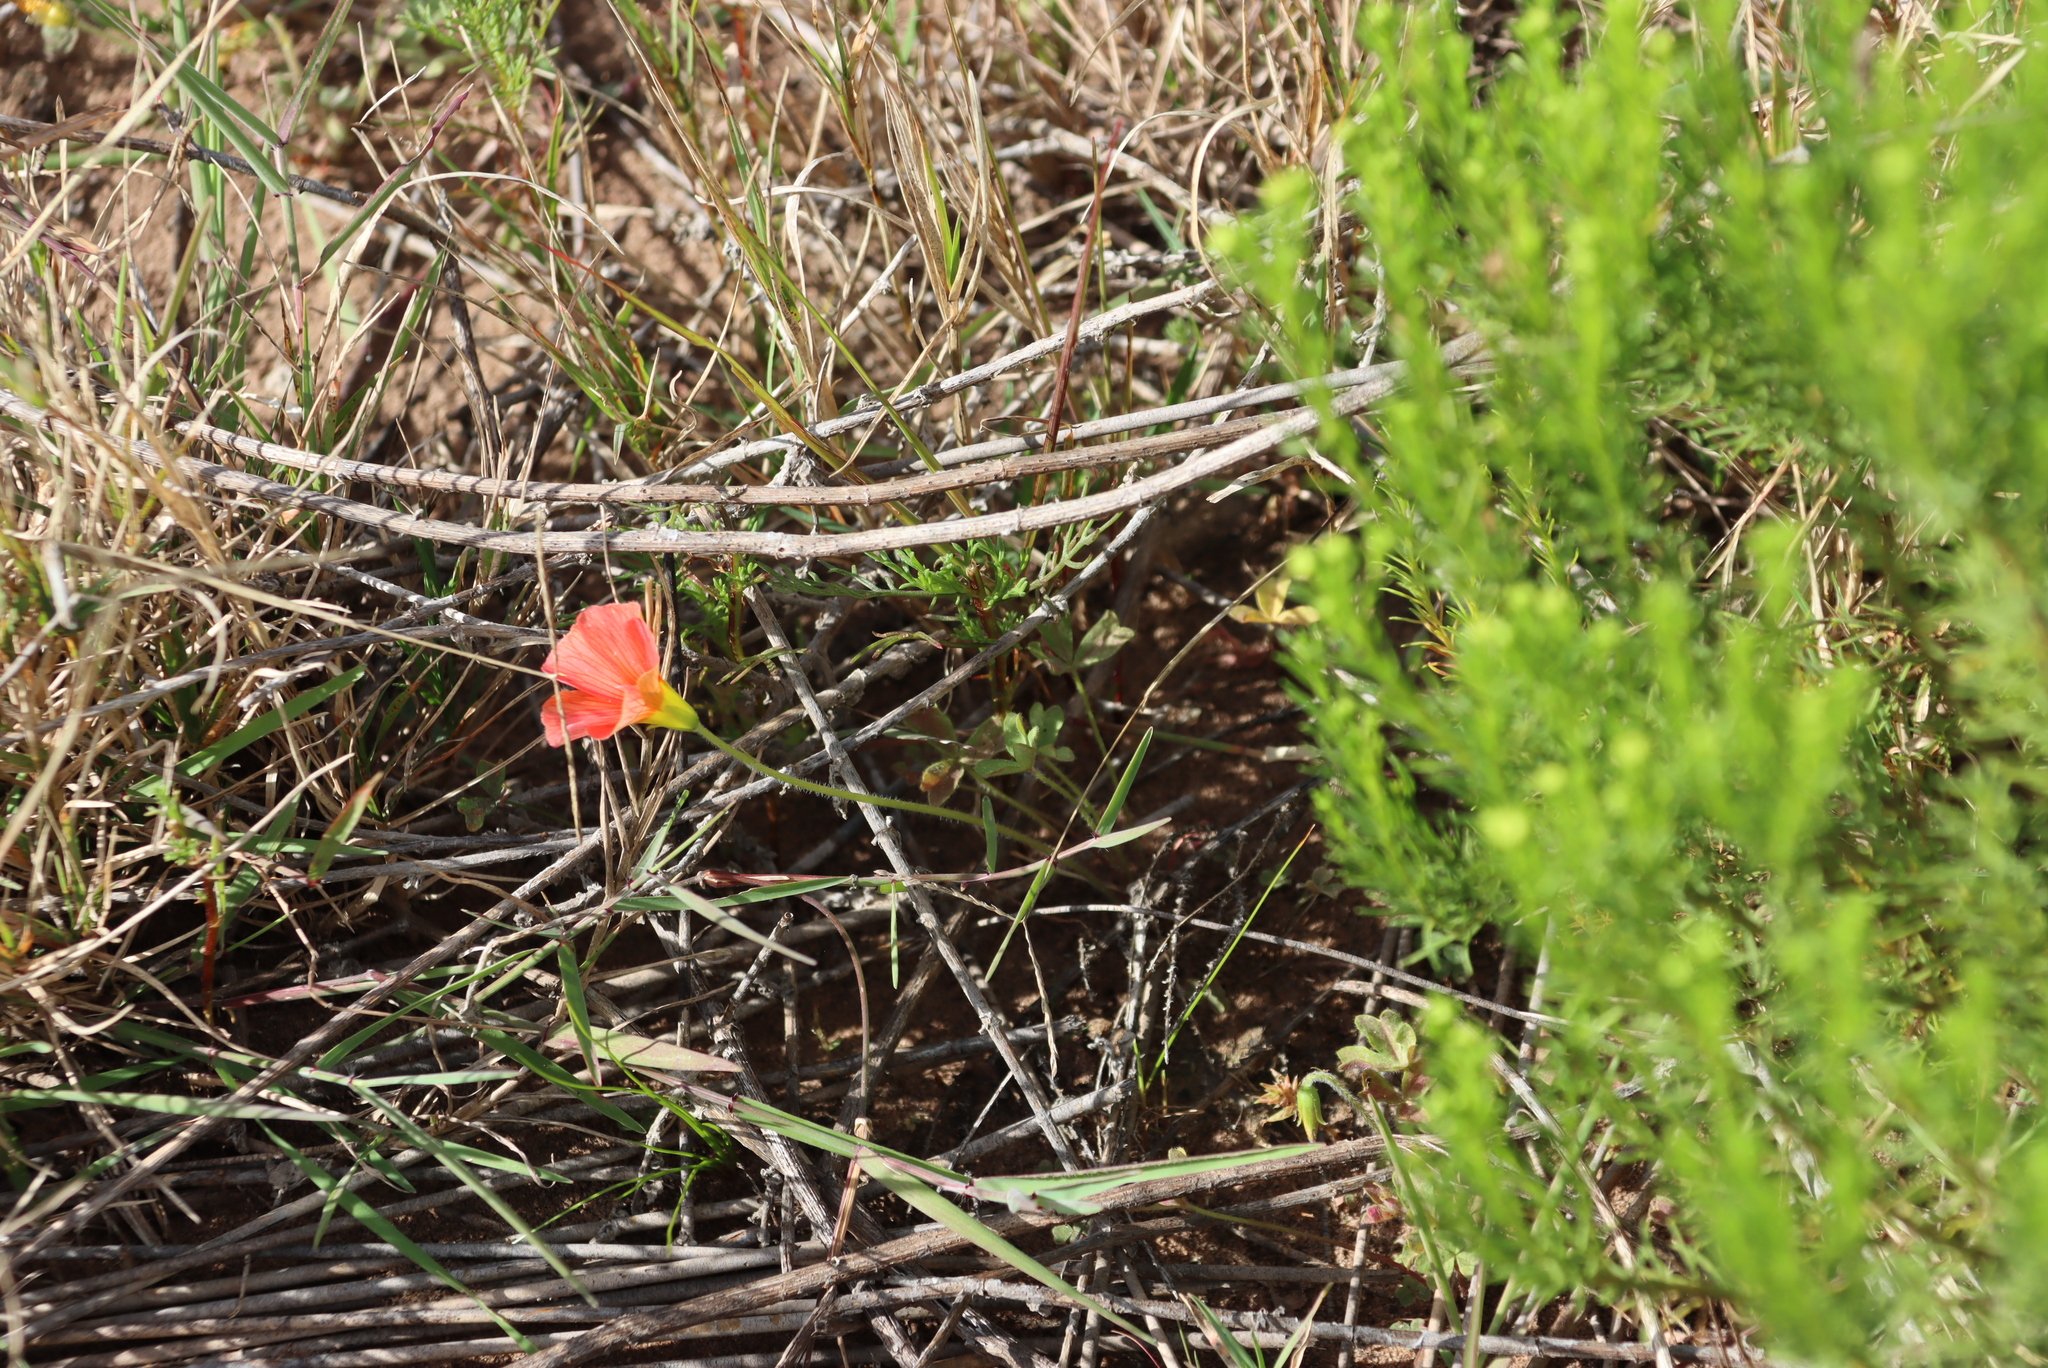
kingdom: Plantae
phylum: Tracheophyta
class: Magnoliopsida
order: Oxalidales
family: Oxalidaceae
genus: Oxalis
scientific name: Oxalis obtusa
